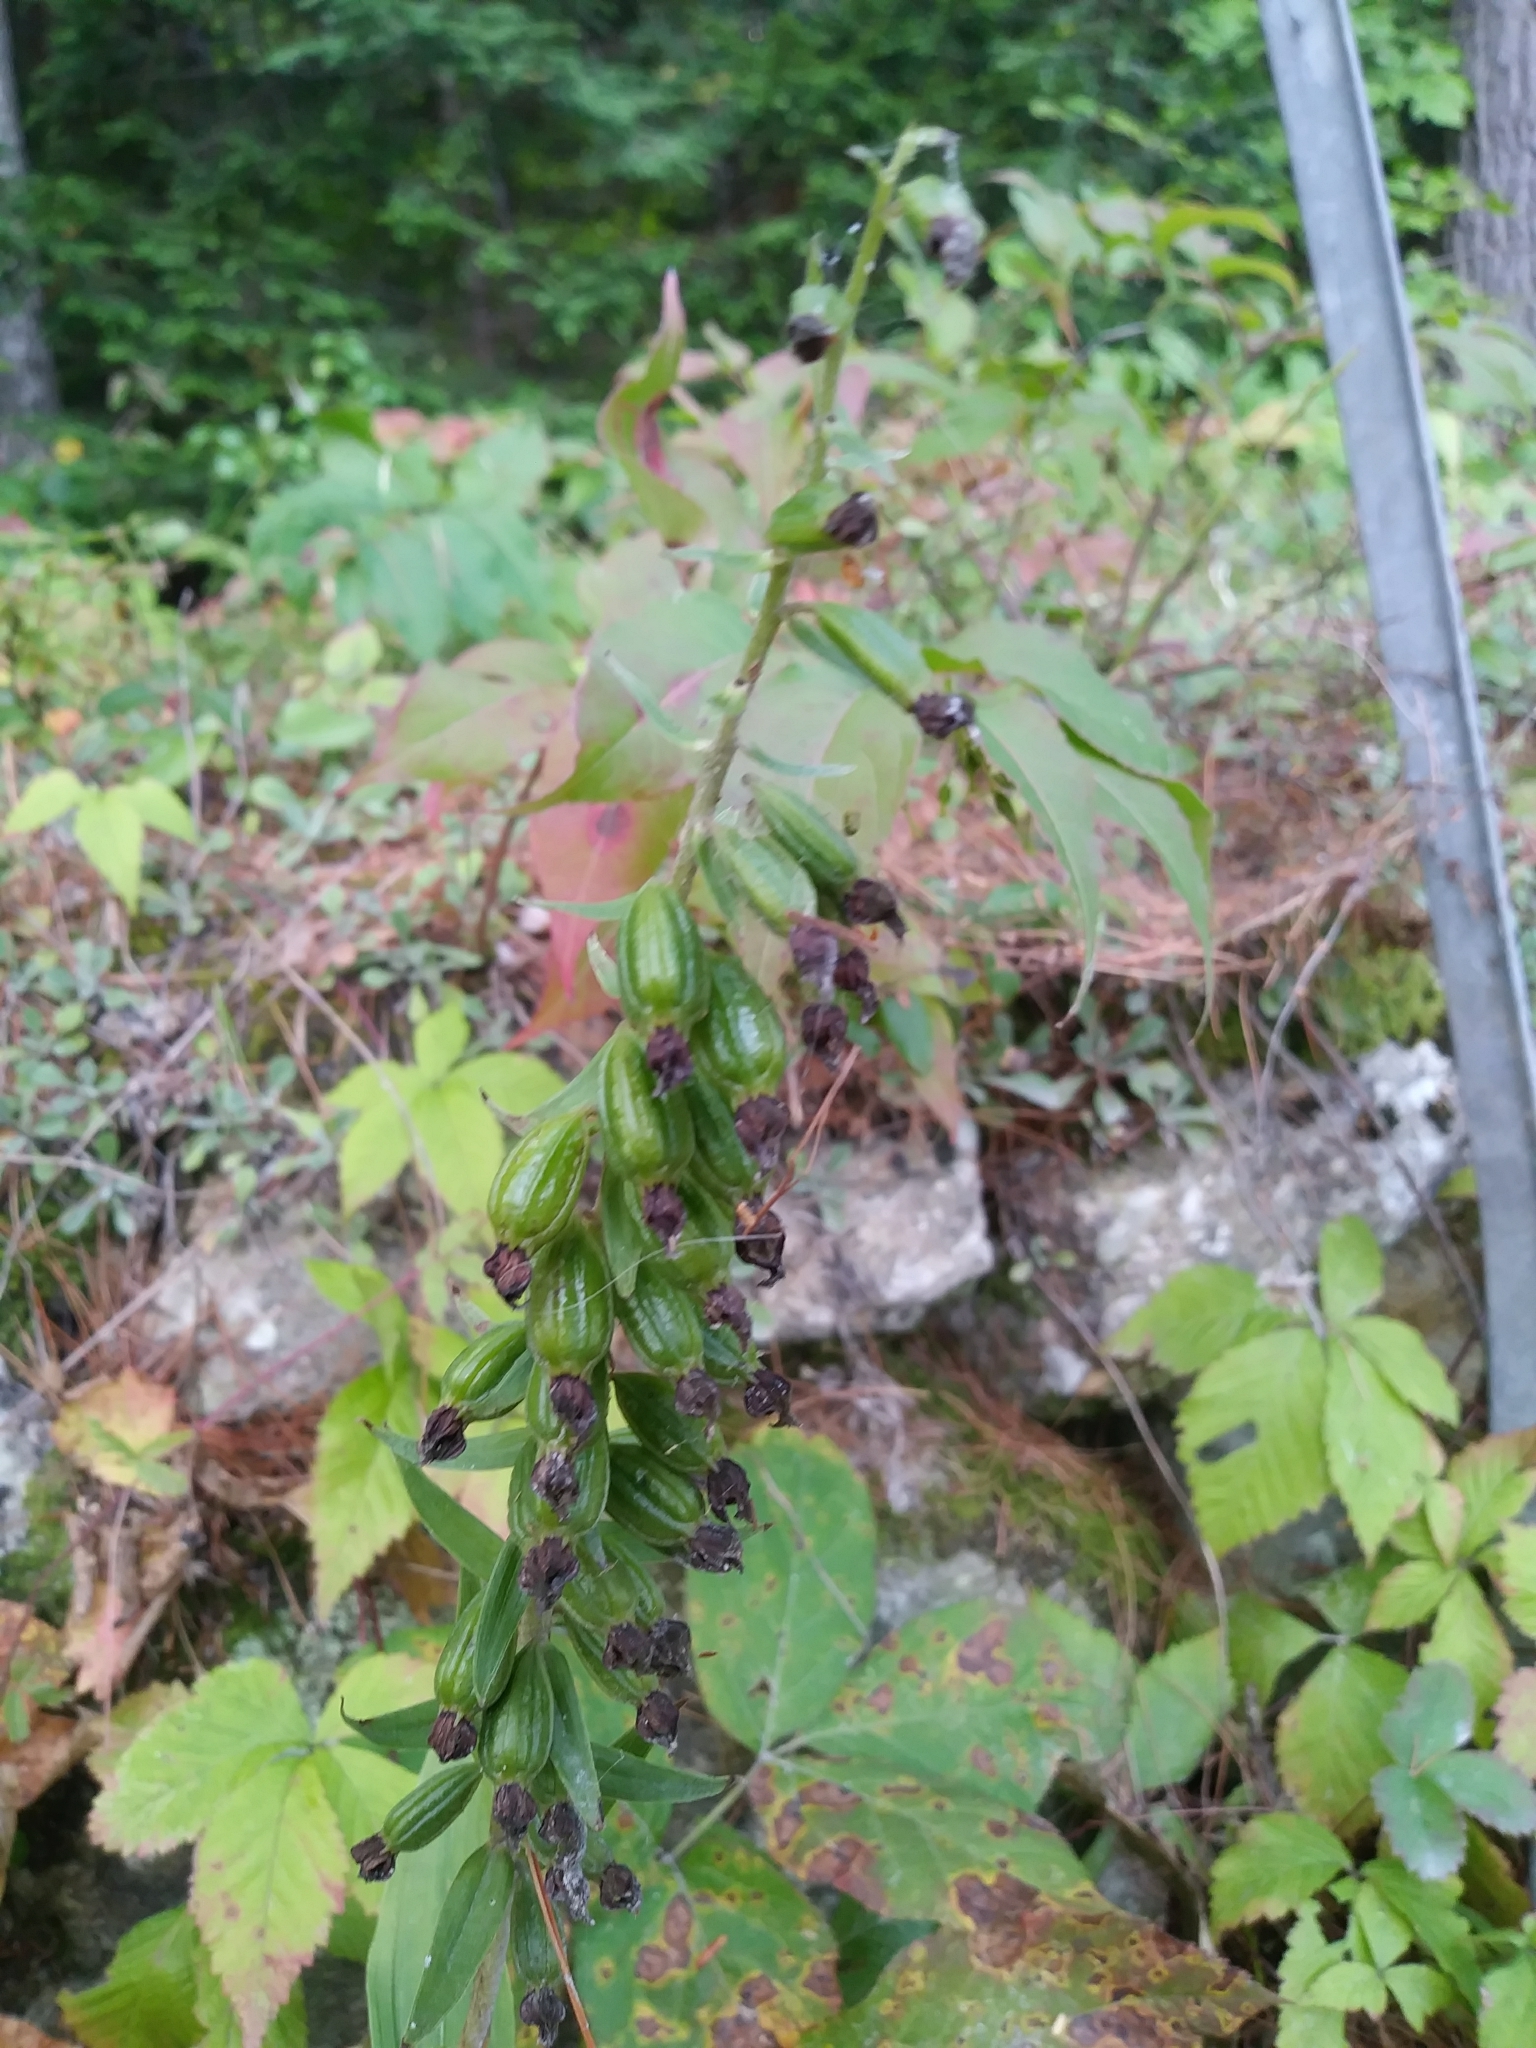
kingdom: Plantae
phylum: Tracheophyta
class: Liliopsida
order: Asparagales
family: Orchidaceae
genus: Epipactis
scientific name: Epipactis helleborine
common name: Broad-leaved helleborine
